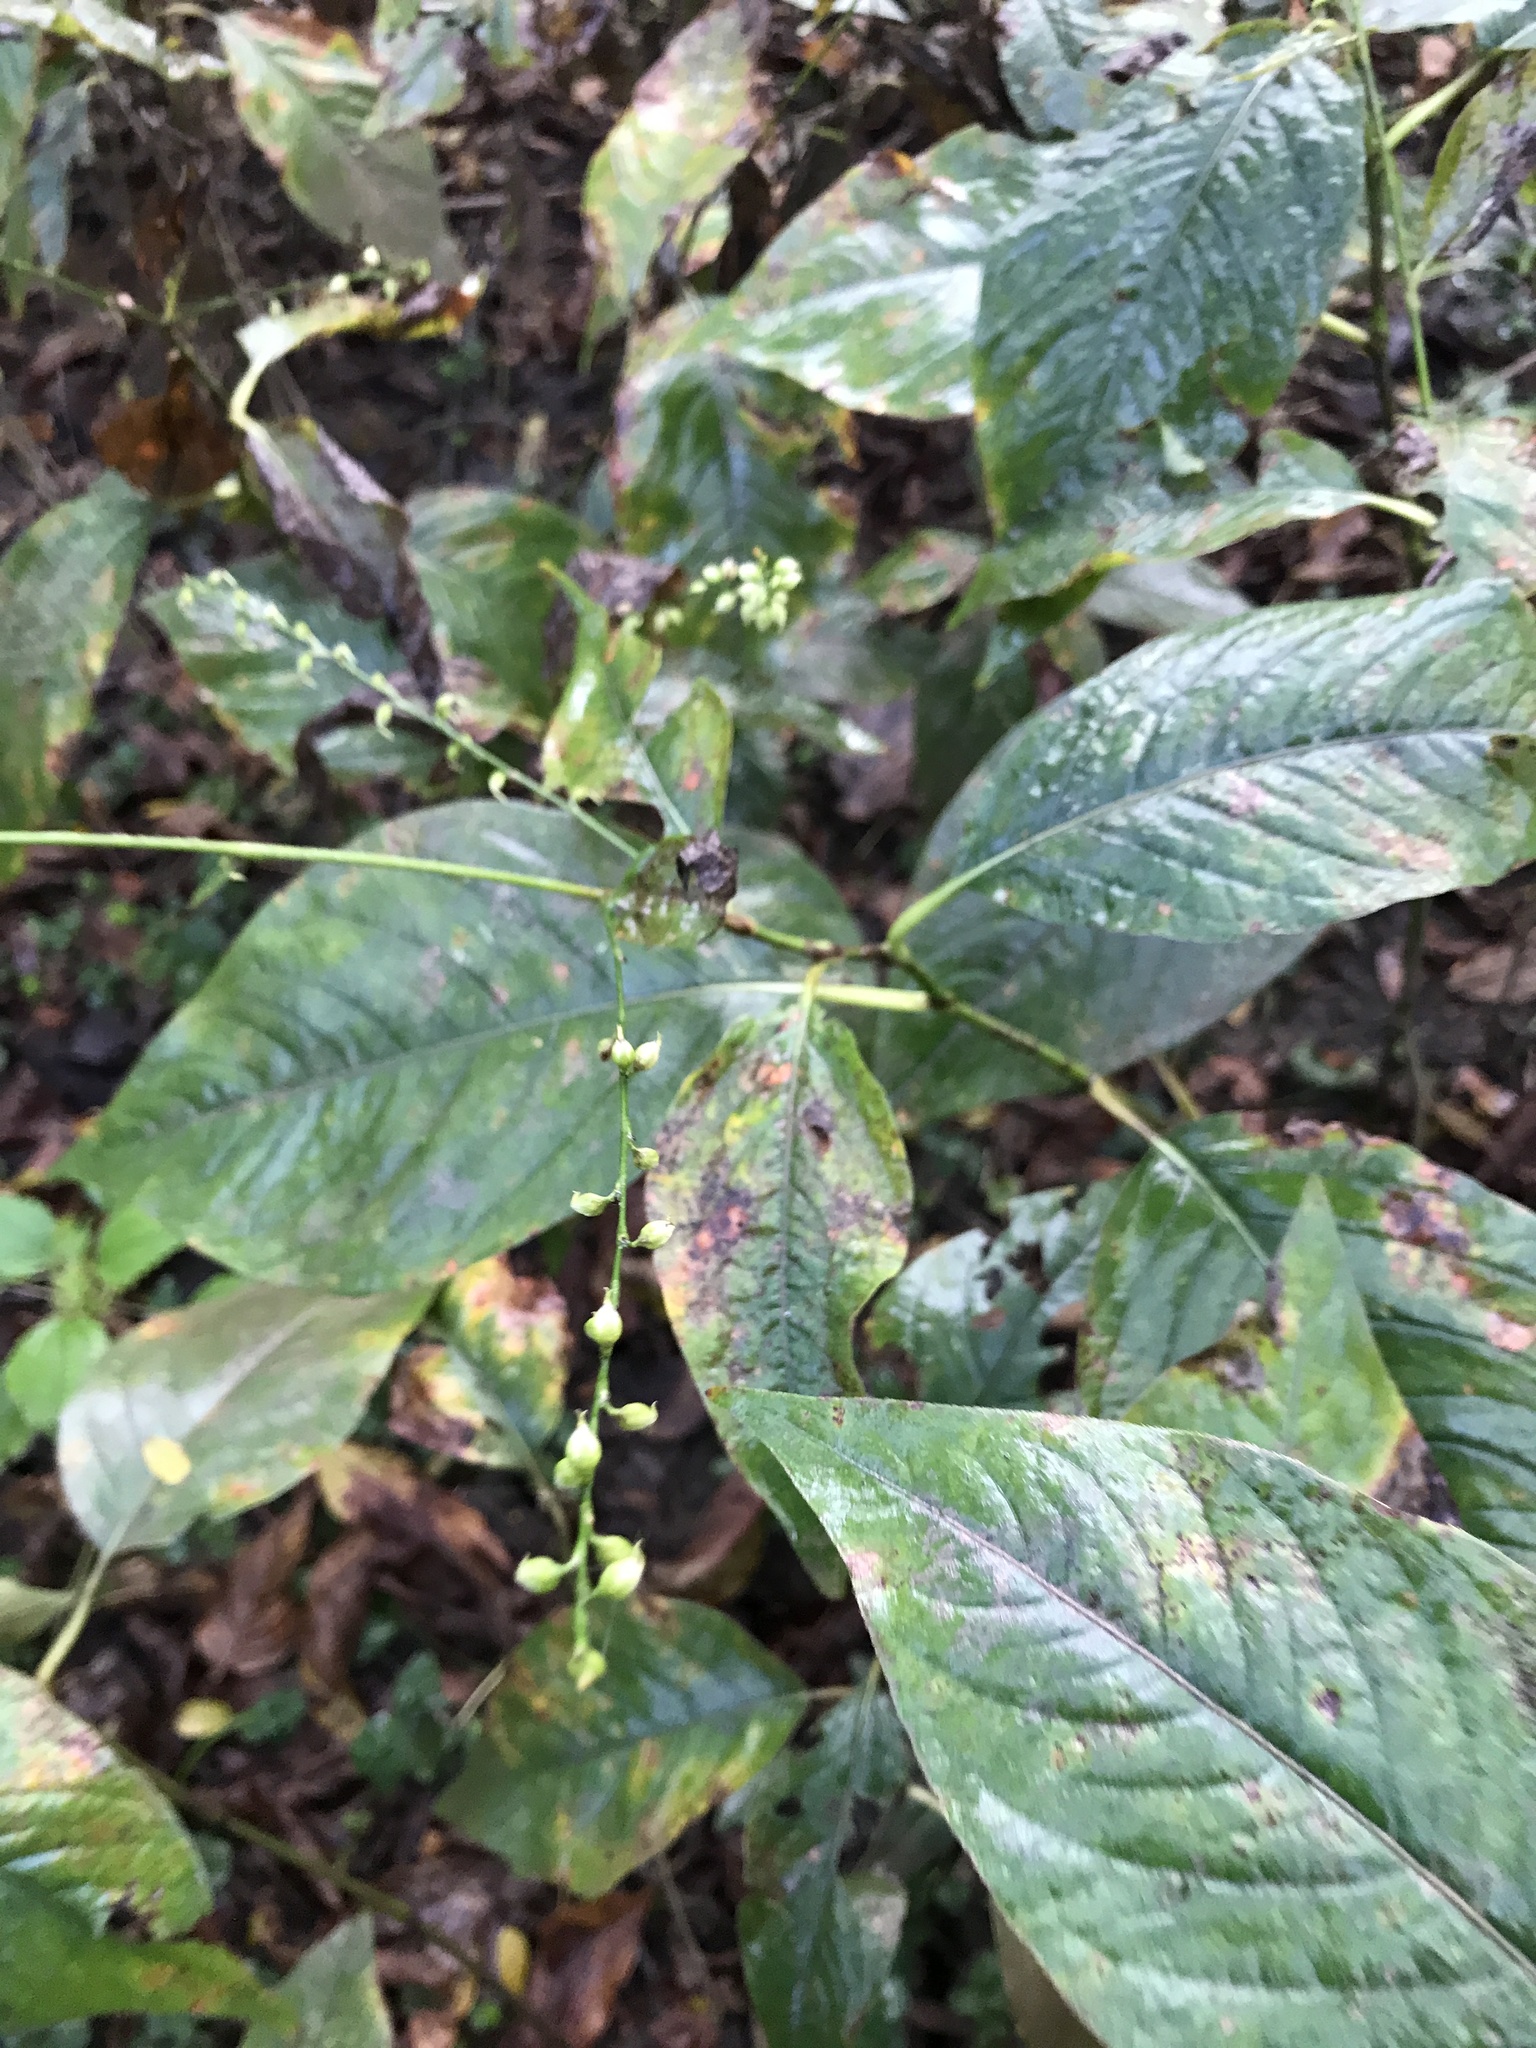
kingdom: Plantae
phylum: Tracheophyta
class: Magnoliopsida
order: Caryophyllales
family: Polygonaceae
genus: Persicaria
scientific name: Persicaria virginiana
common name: Jumpseed
